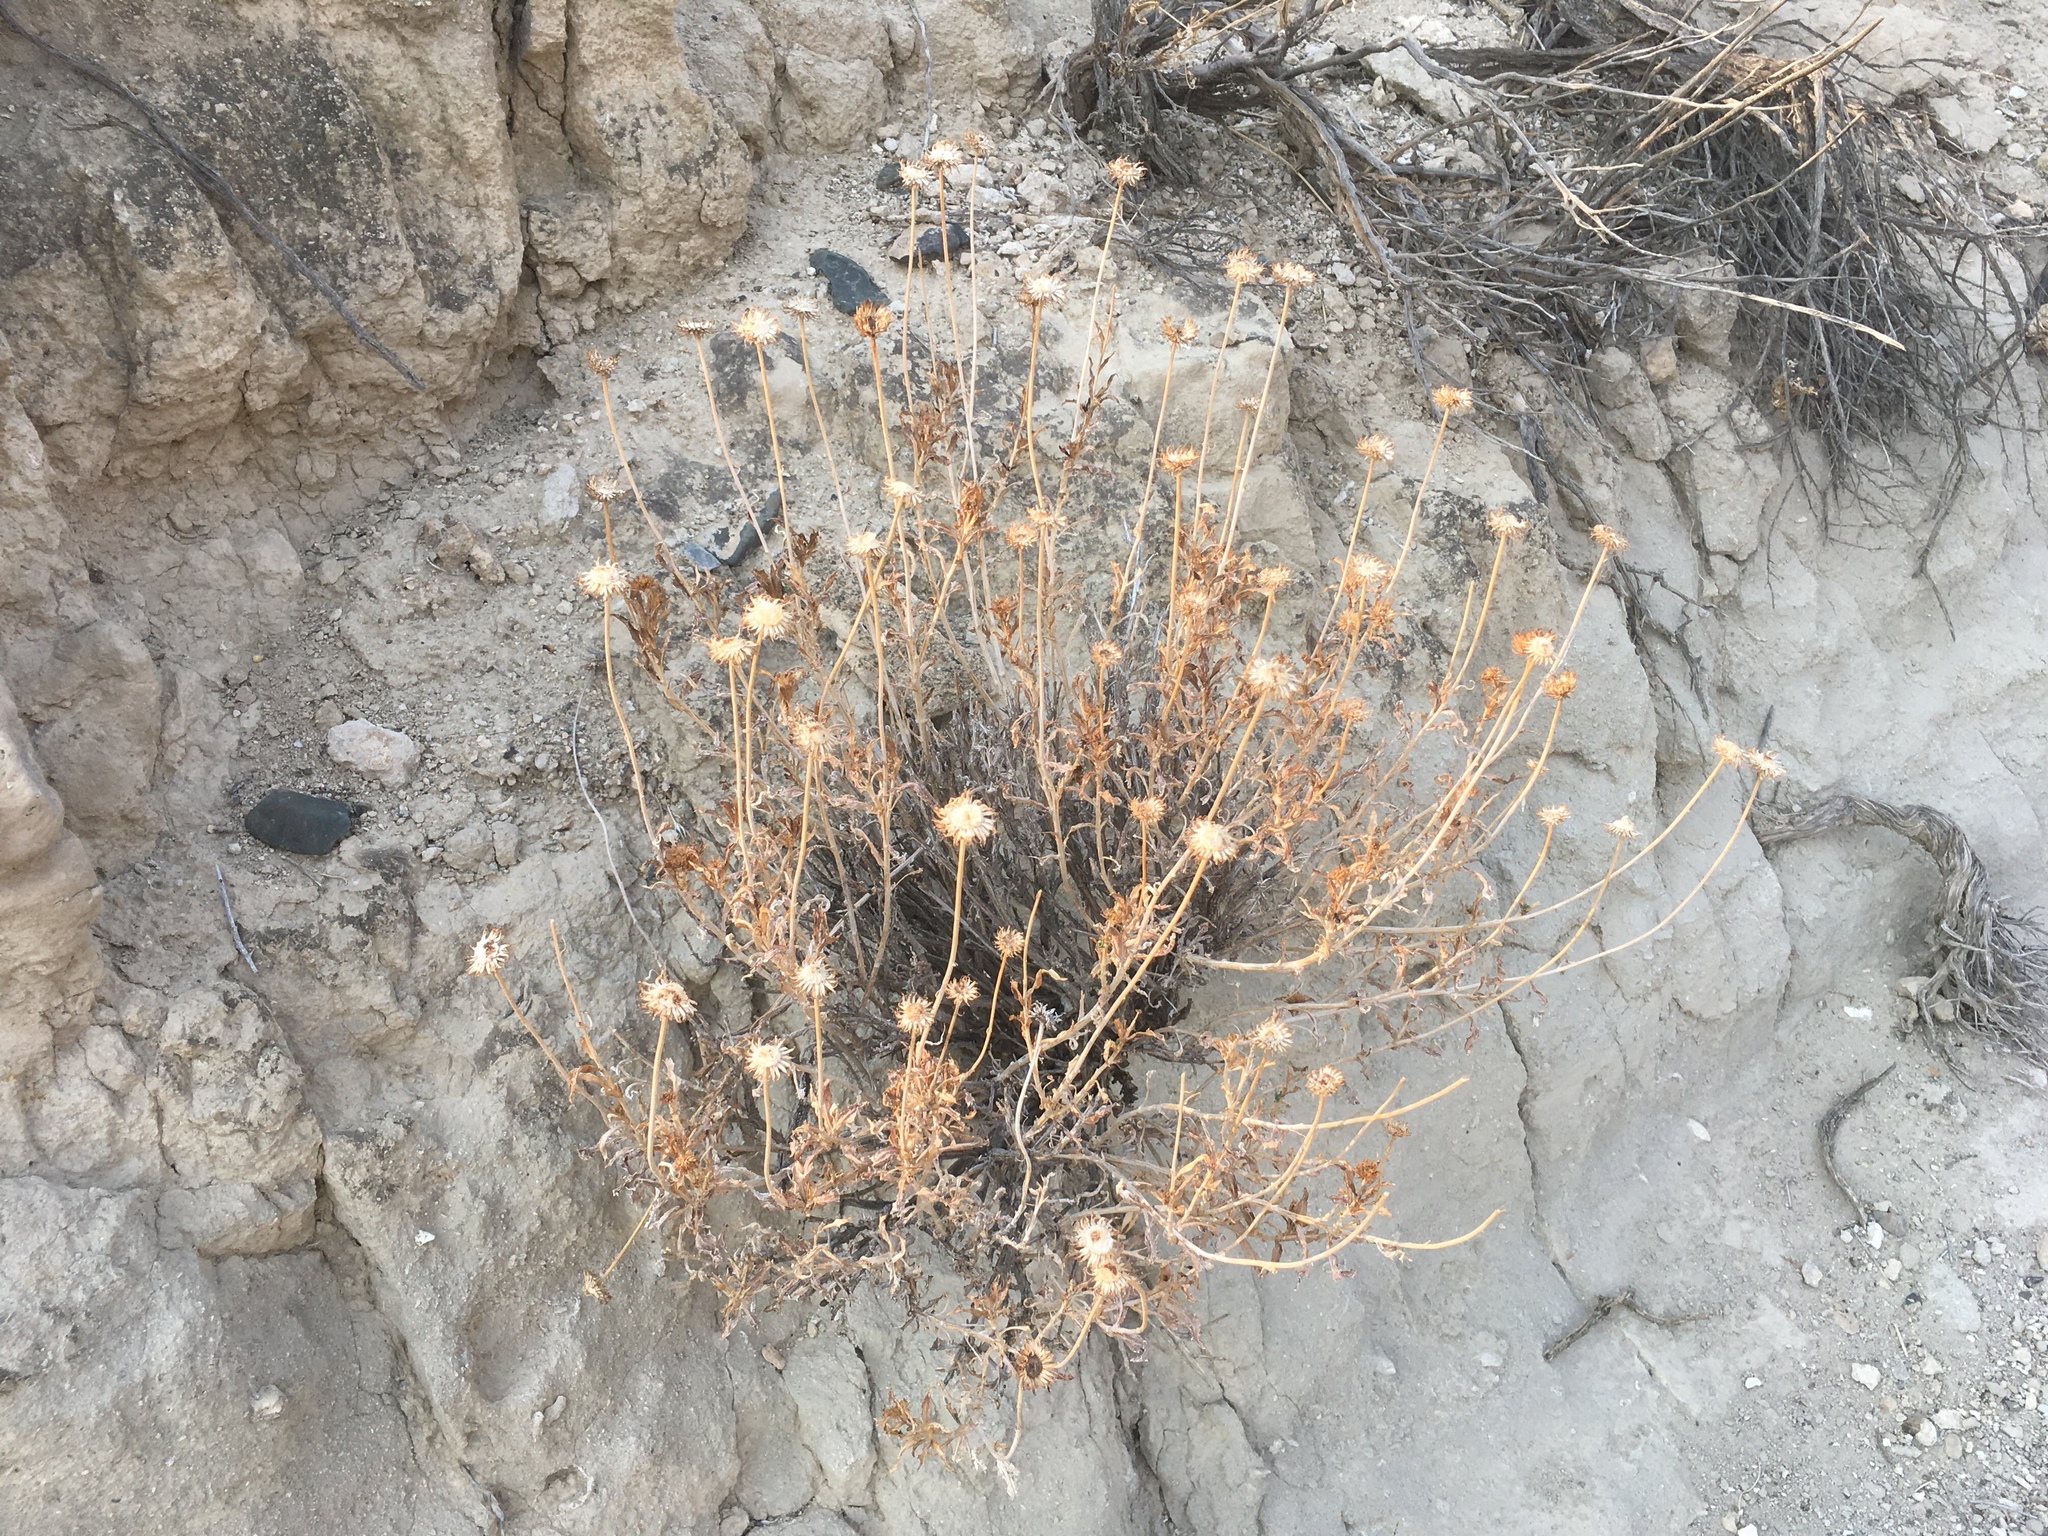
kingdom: Plantae
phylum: Tracheophyta
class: Magnoliopsida
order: Asterales
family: Asteraceae
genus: Xylorhiza
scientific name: Xylorhiza tortifolia
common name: Hurt-leaf woody-aster
